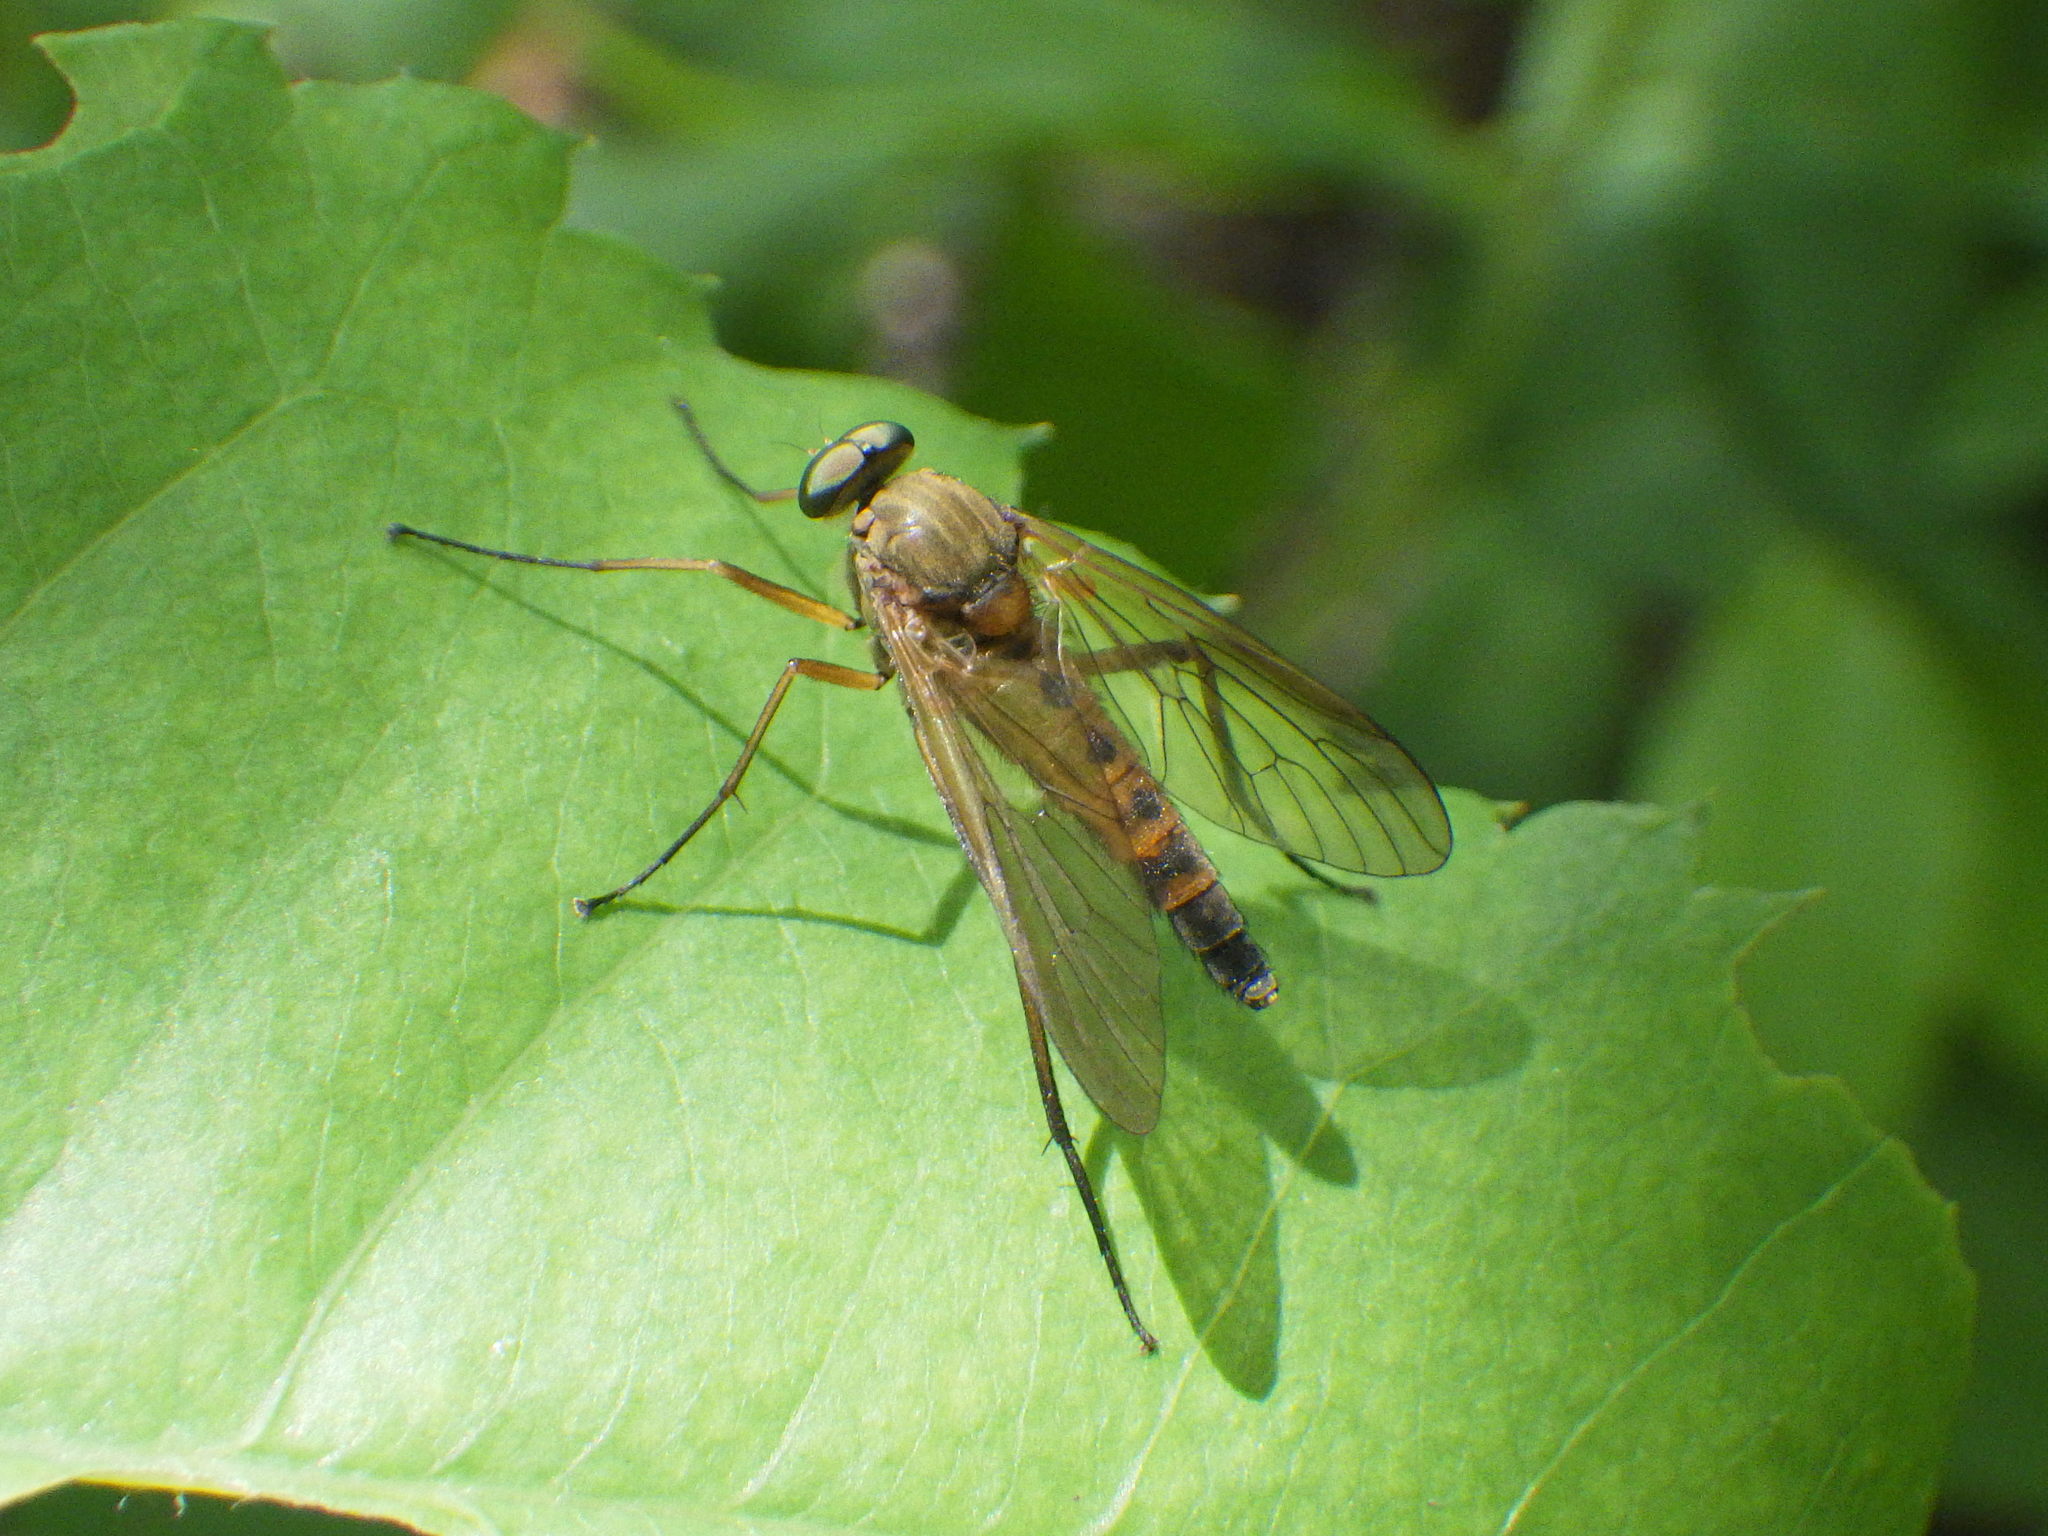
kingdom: Animalia
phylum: Arthropoda
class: Insecta
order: Diptera
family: Rhagionidae
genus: Rhagio
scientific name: Rhagio tringaria
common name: Marsh snipefly
